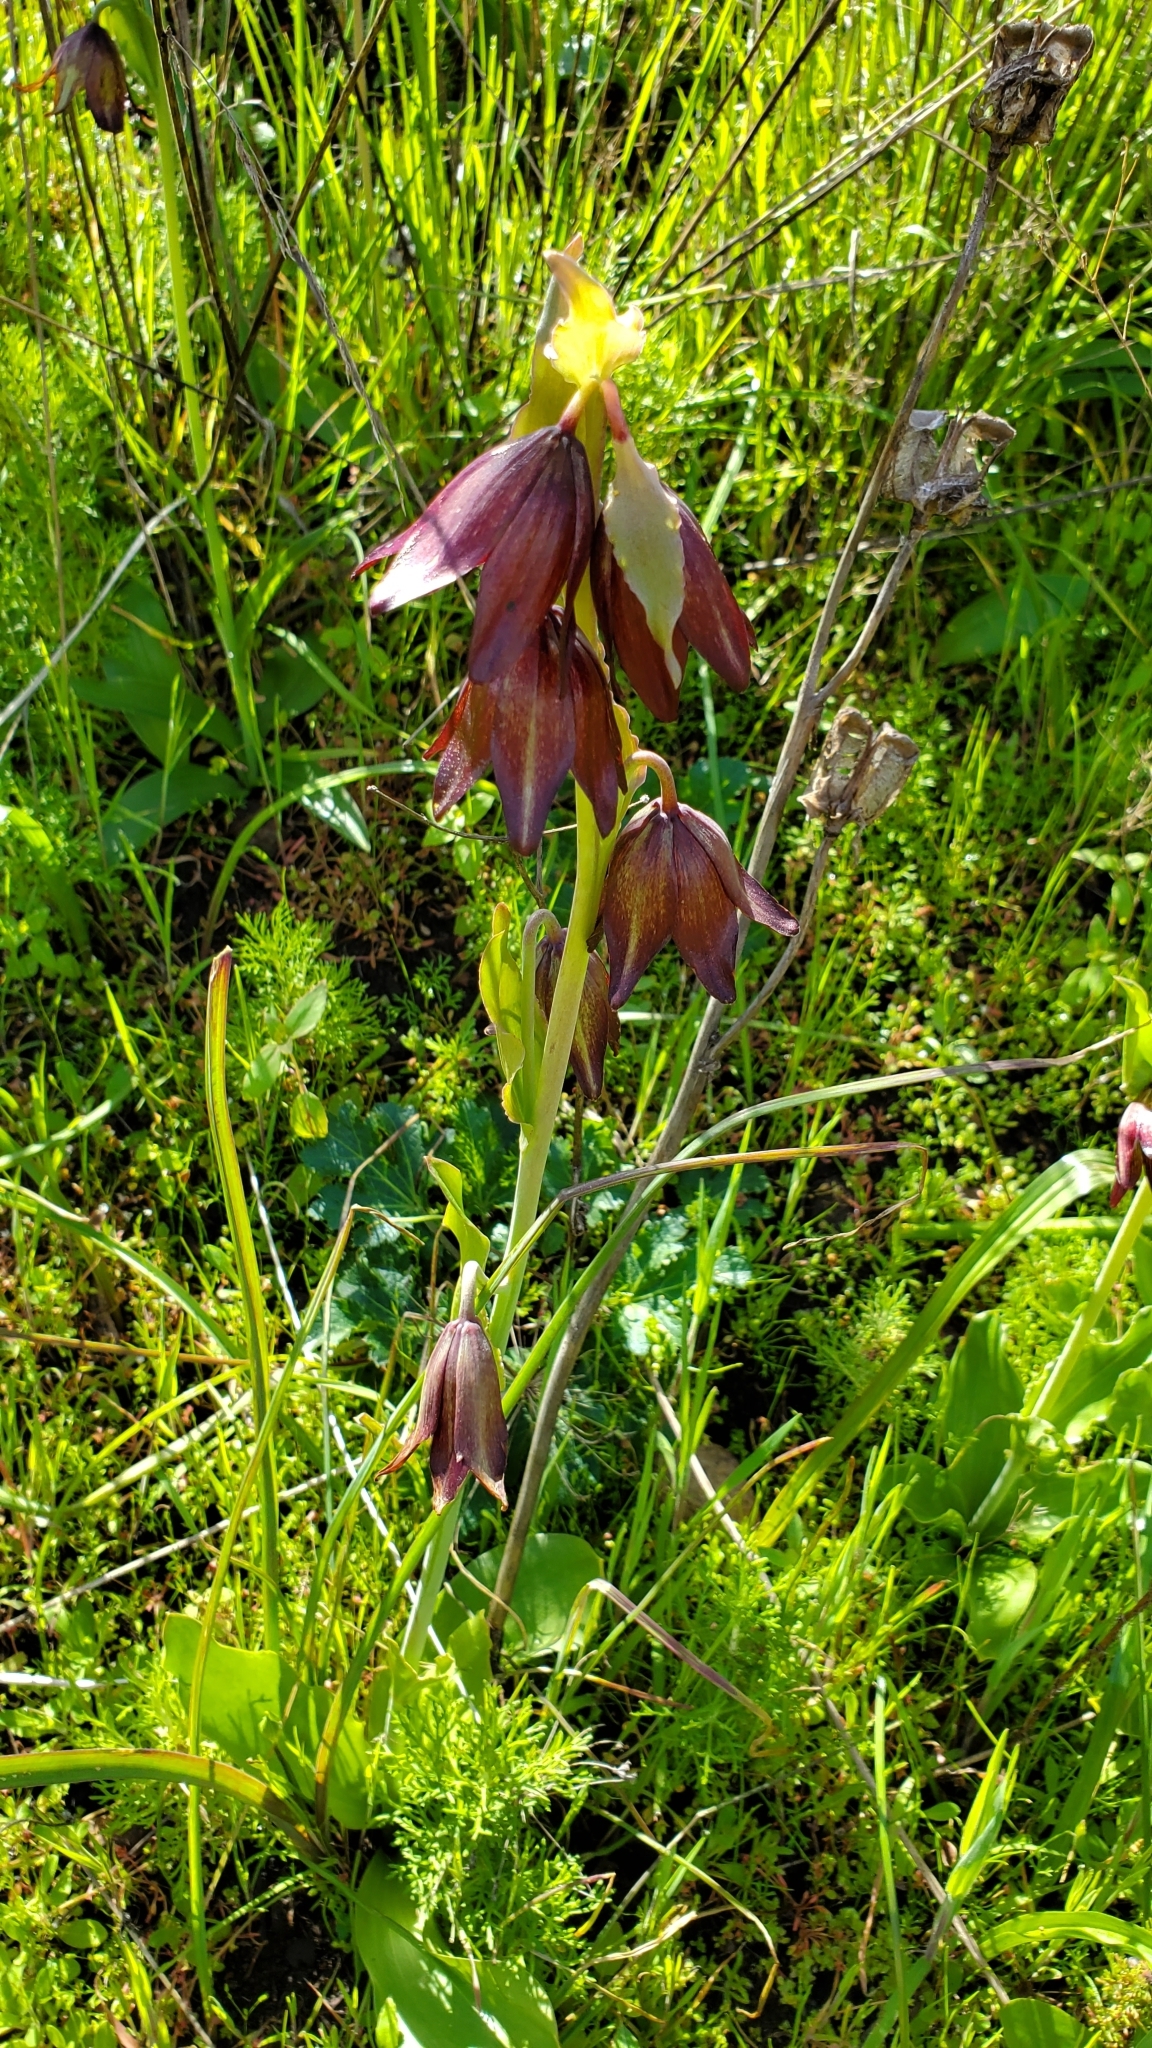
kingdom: Plantae
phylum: Tracheophyta
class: Liliopsida
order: Liliales
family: Liliaceae
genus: Fritillaria
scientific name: Fritillaria biflora
